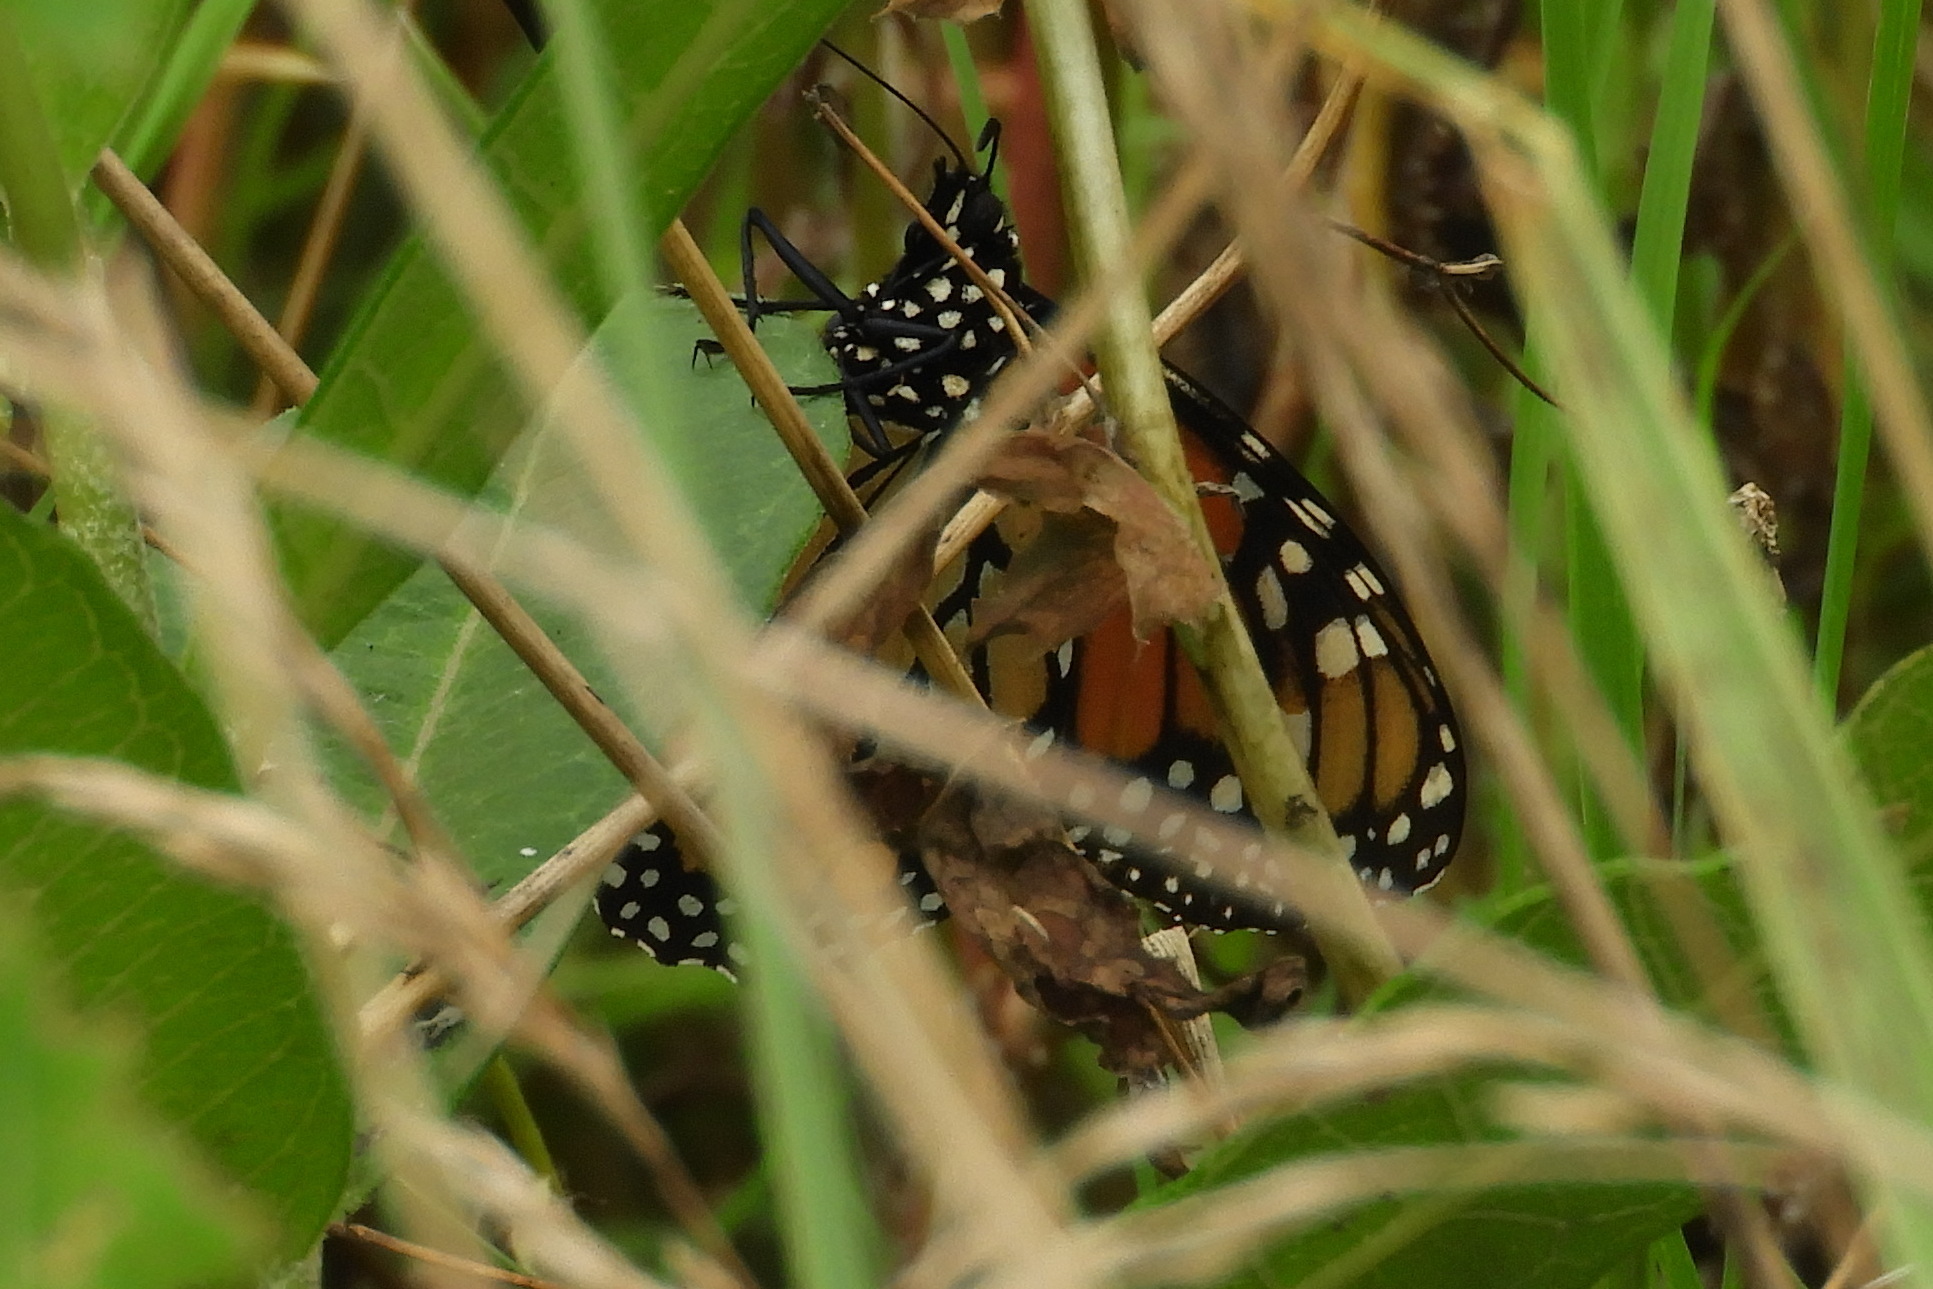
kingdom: Animalia
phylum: Arthropoda
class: Insecta
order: Lepidoptera
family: Nymphalidae
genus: Danaus
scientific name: Danaus plexippus
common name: Monarch
